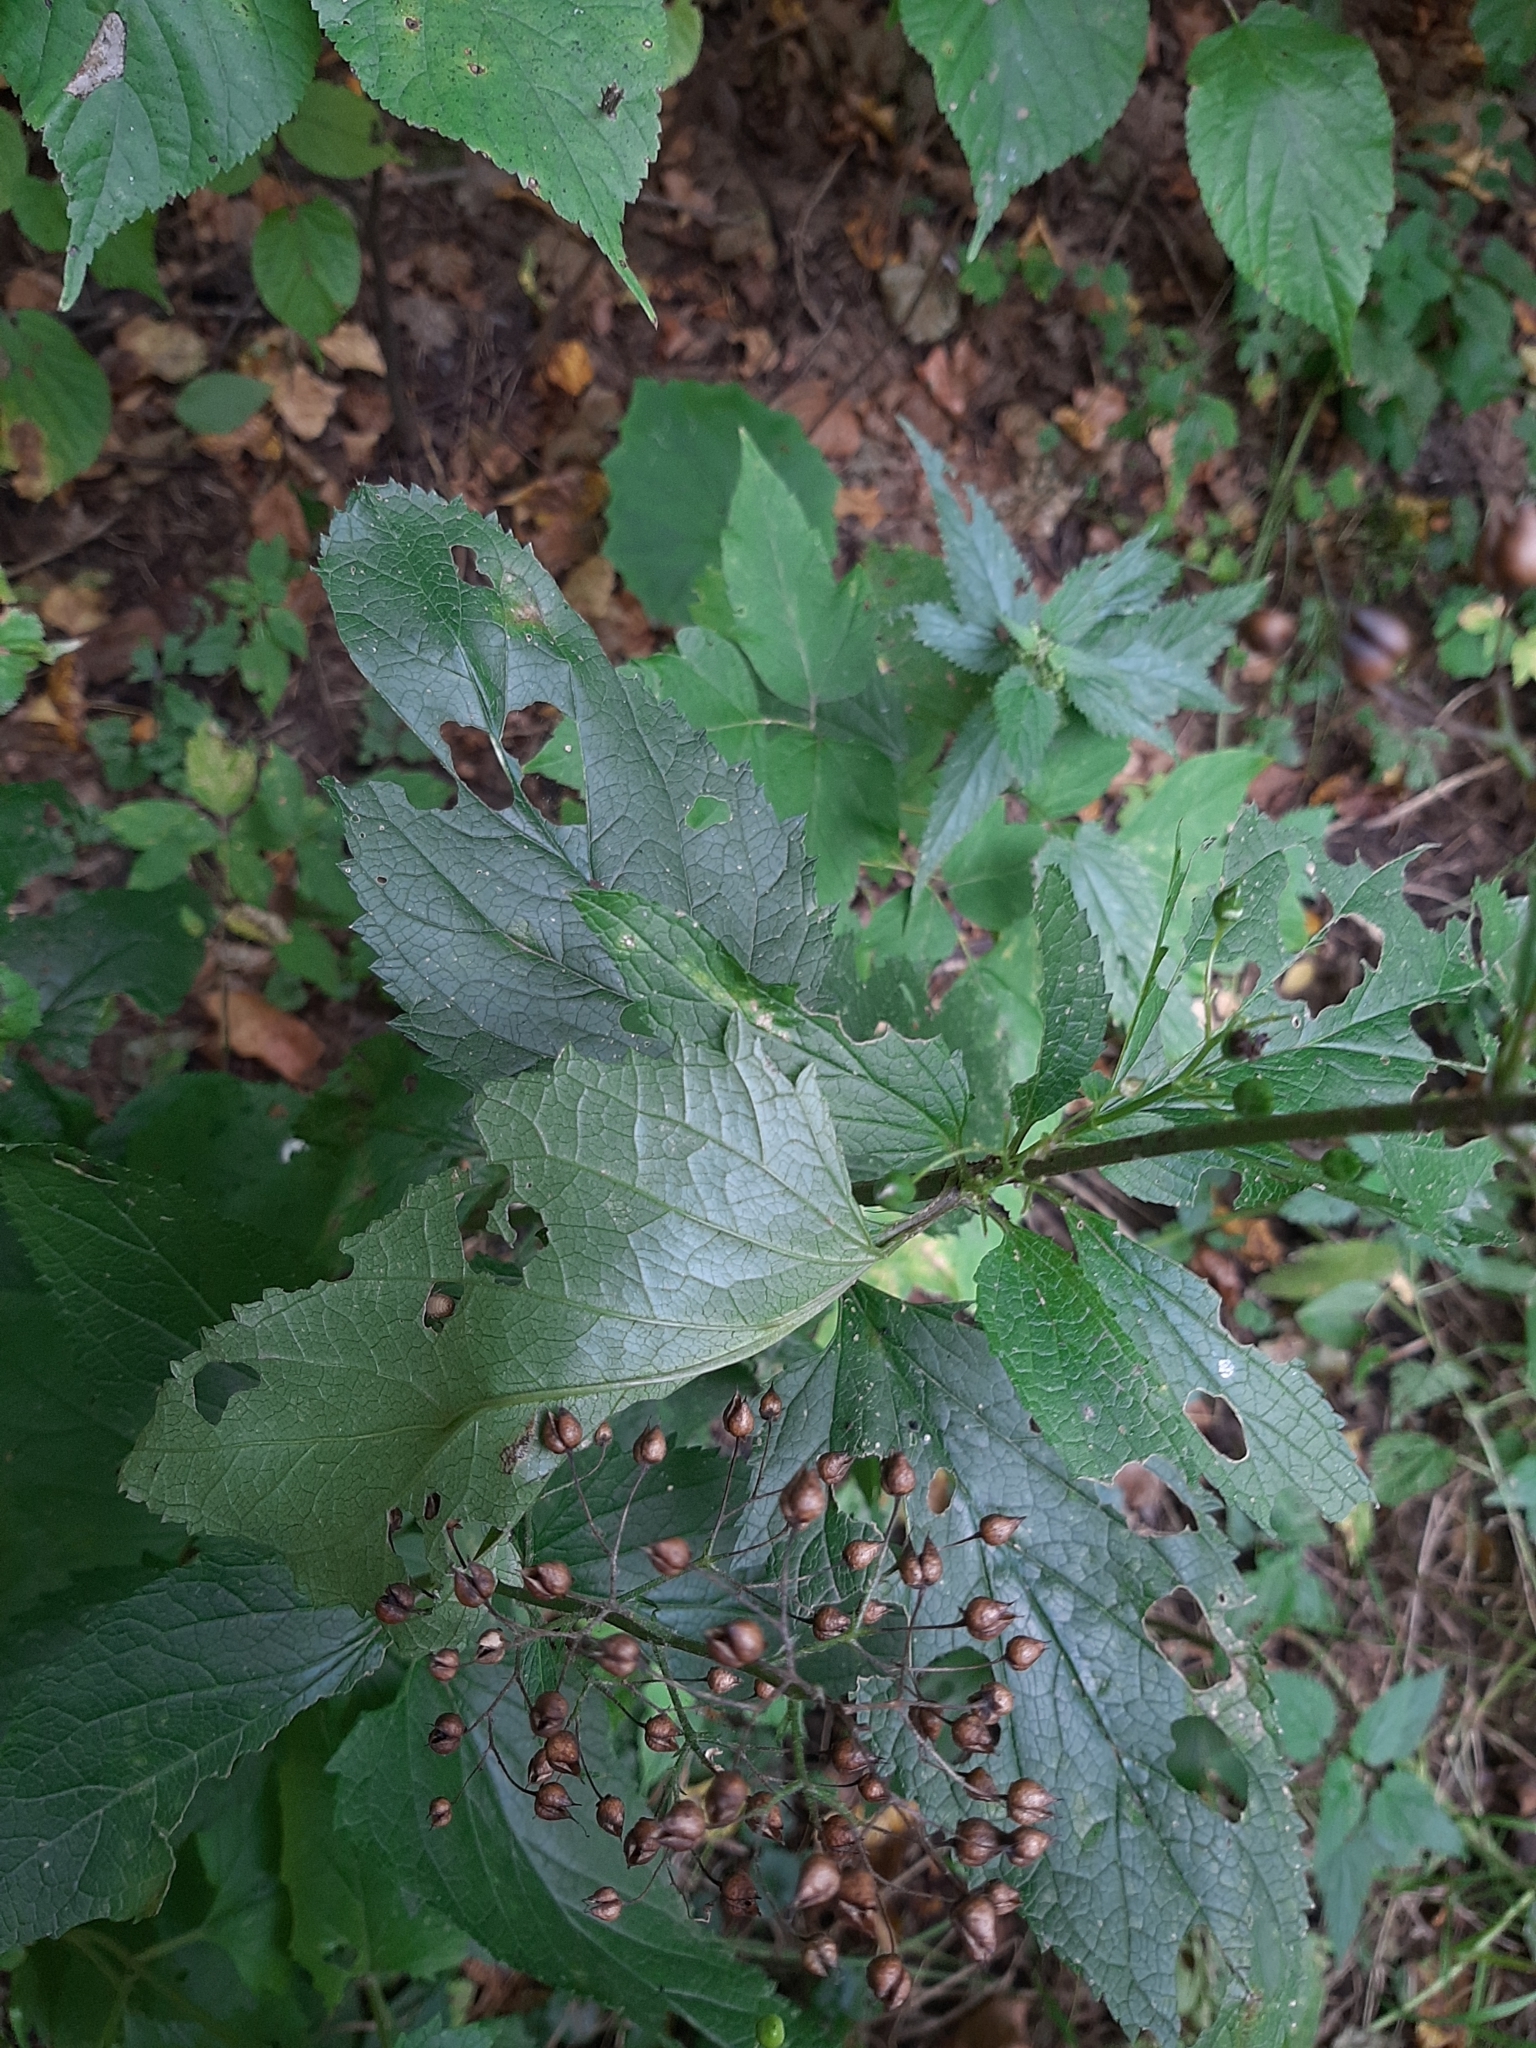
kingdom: Plantae
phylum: Tracheophyta
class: Magnoliopsida
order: Lamiales
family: Scrophulariaceae
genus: Scrophularia
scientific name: Scrophularia nodosa
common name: Common figwort
